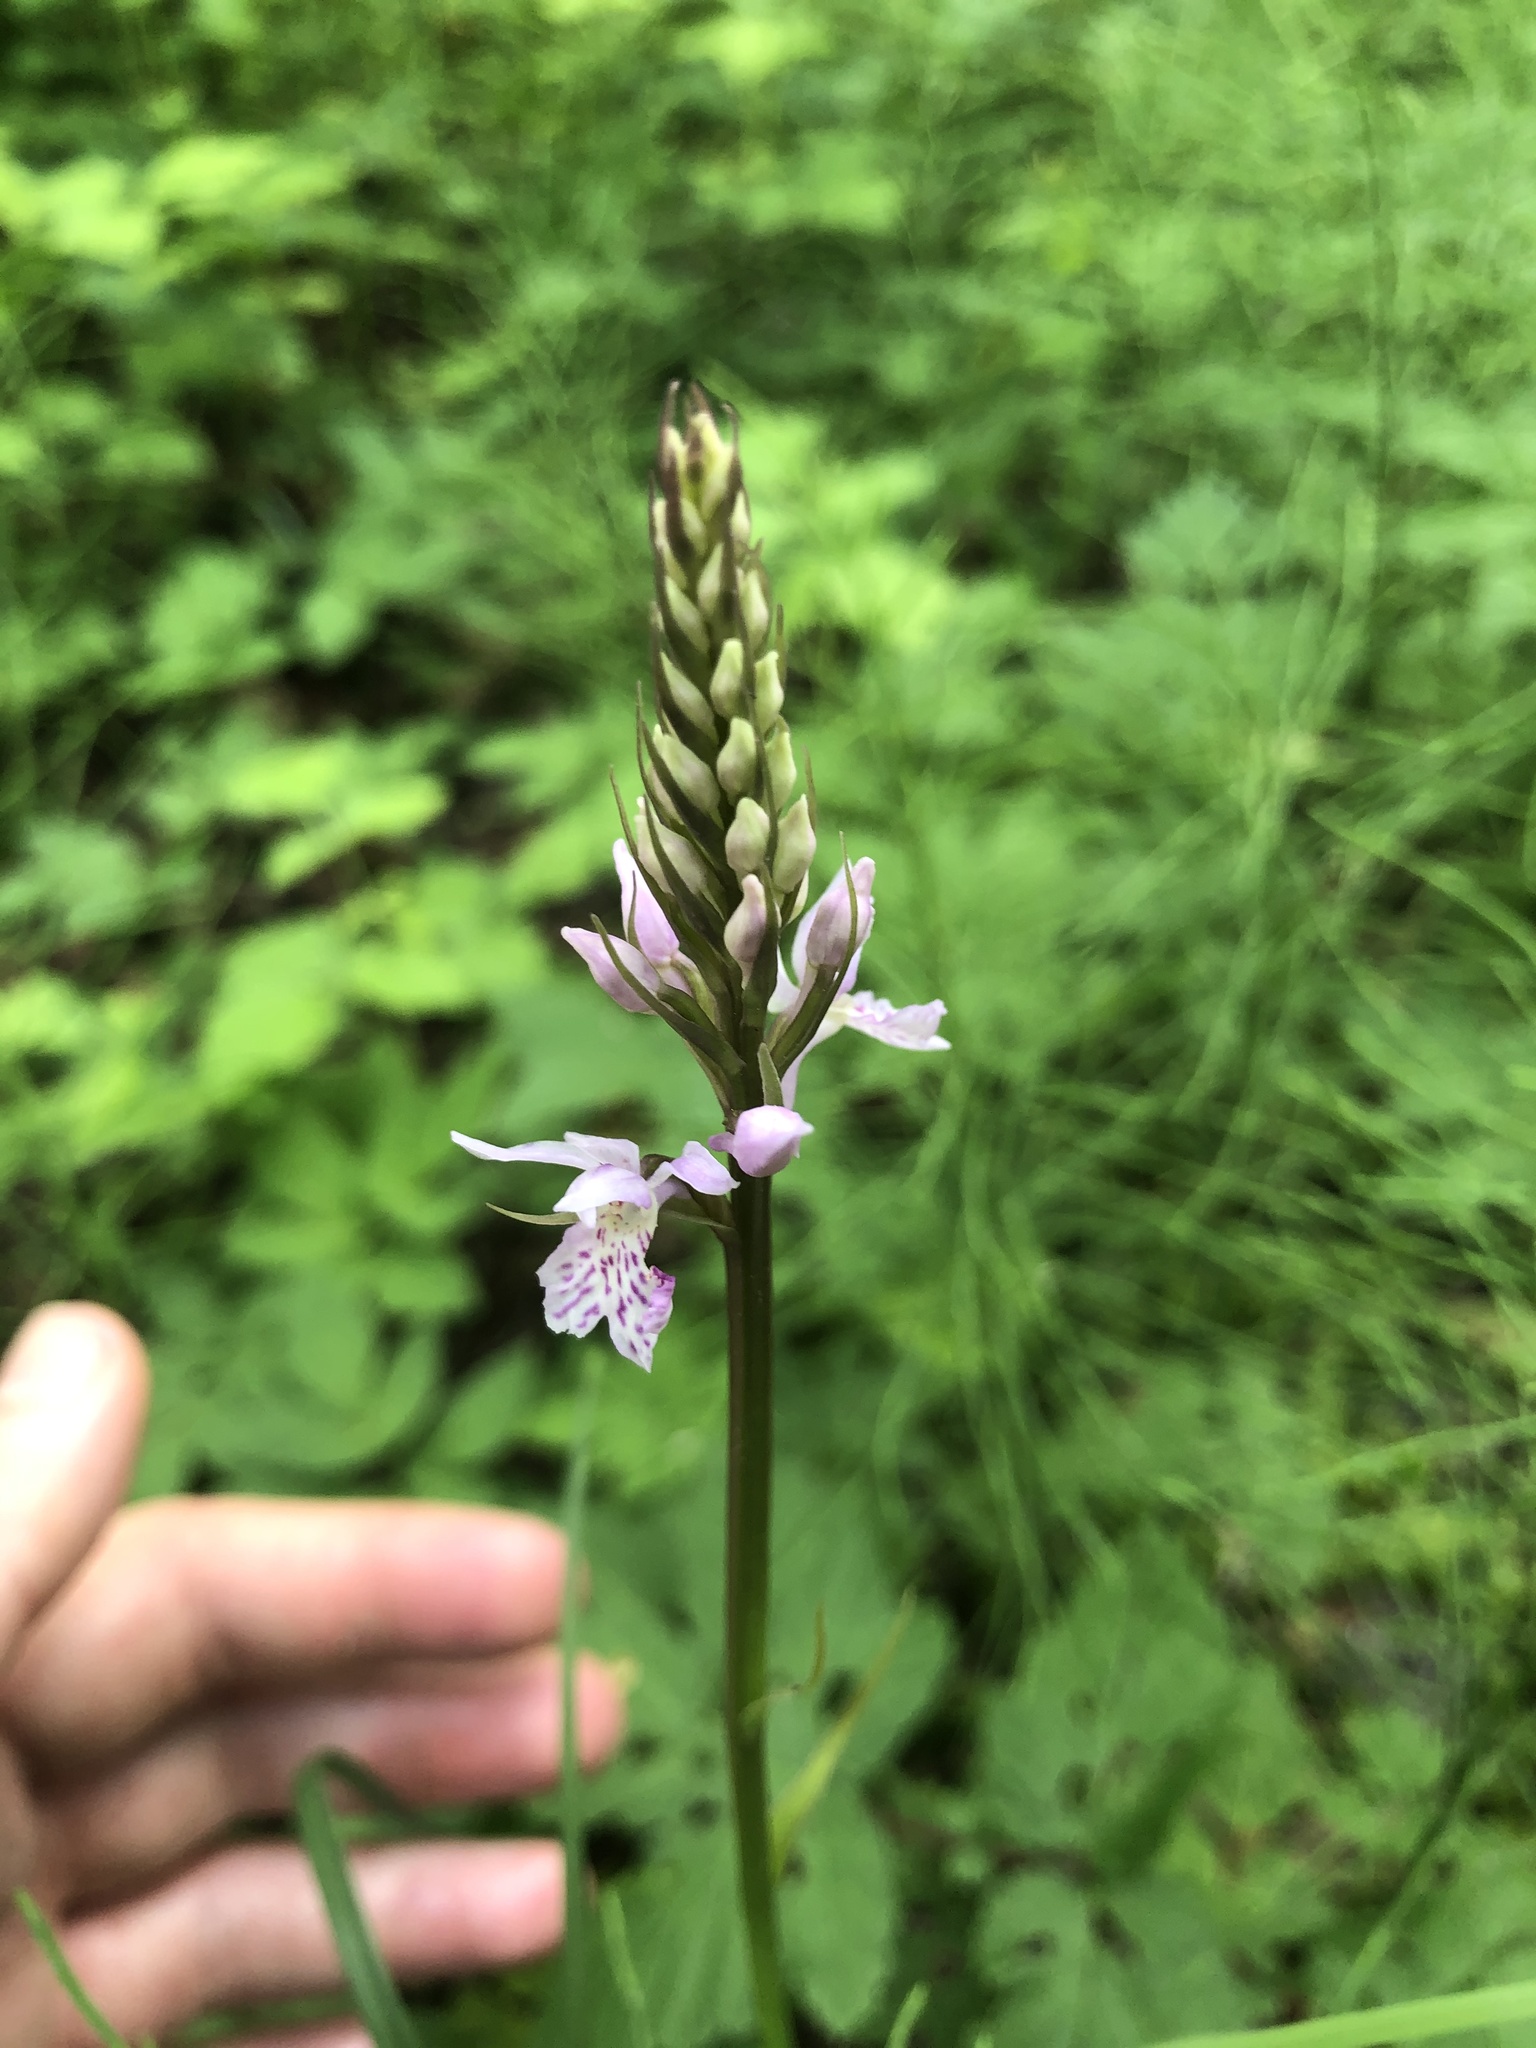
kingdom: Plantae
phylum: Tracheophyta
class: Liliopsida
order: Asparagales
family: Orchidaceae
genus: Dactylorhiza
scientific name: Dactylorhiza maculata
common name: Heath spotted-orchid
